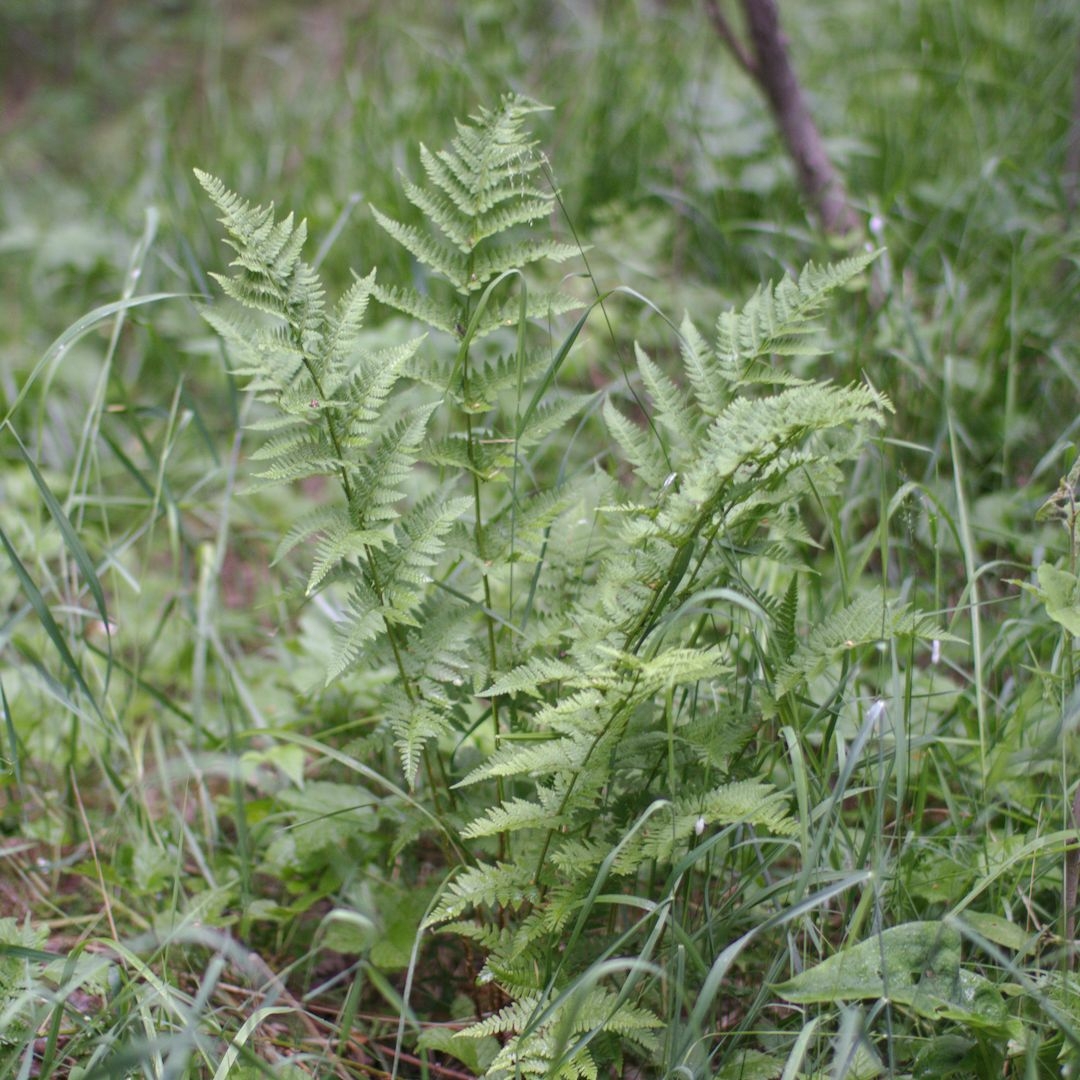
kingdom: Plantae
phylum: Tracheophyta
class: Polypodiopsida
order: Polypodiales
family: Dryopteridaceae
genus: Dryopteris
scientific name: Dryopteris carthusiana
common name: Narrow buckler-fern
